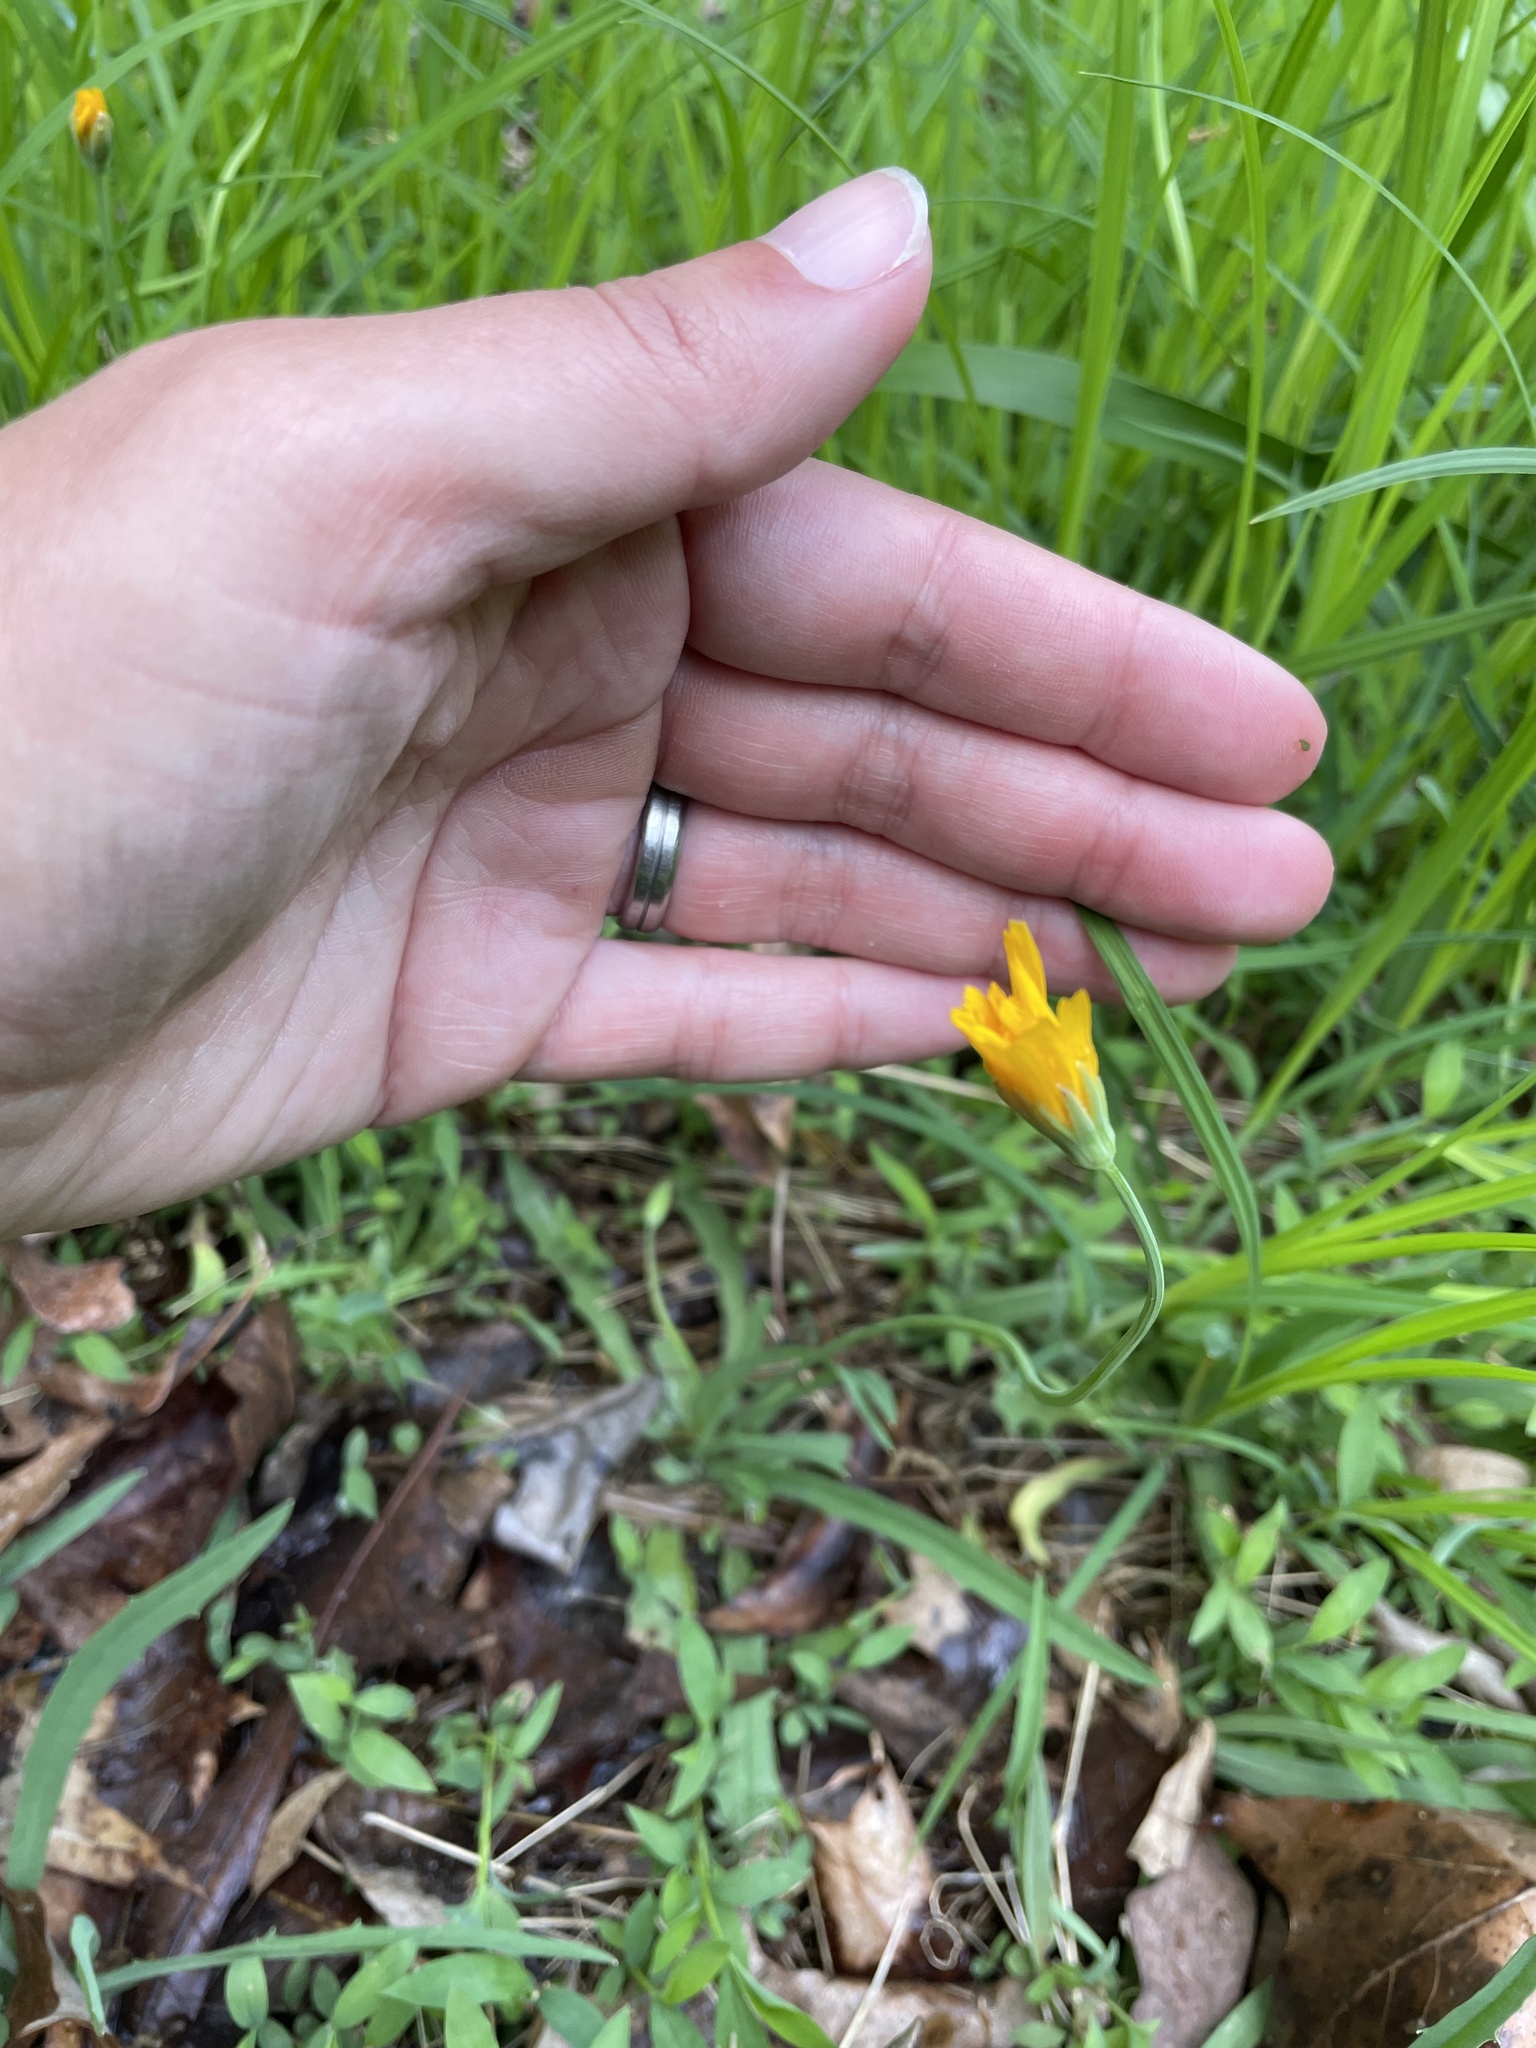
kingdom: Plantae
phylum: Tracheophyta
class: Magnoliopsida
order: Asterales
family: Asteraceae
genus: Krigia
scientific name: Krigia dandelion
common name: Colonial dwarf-dandelion
